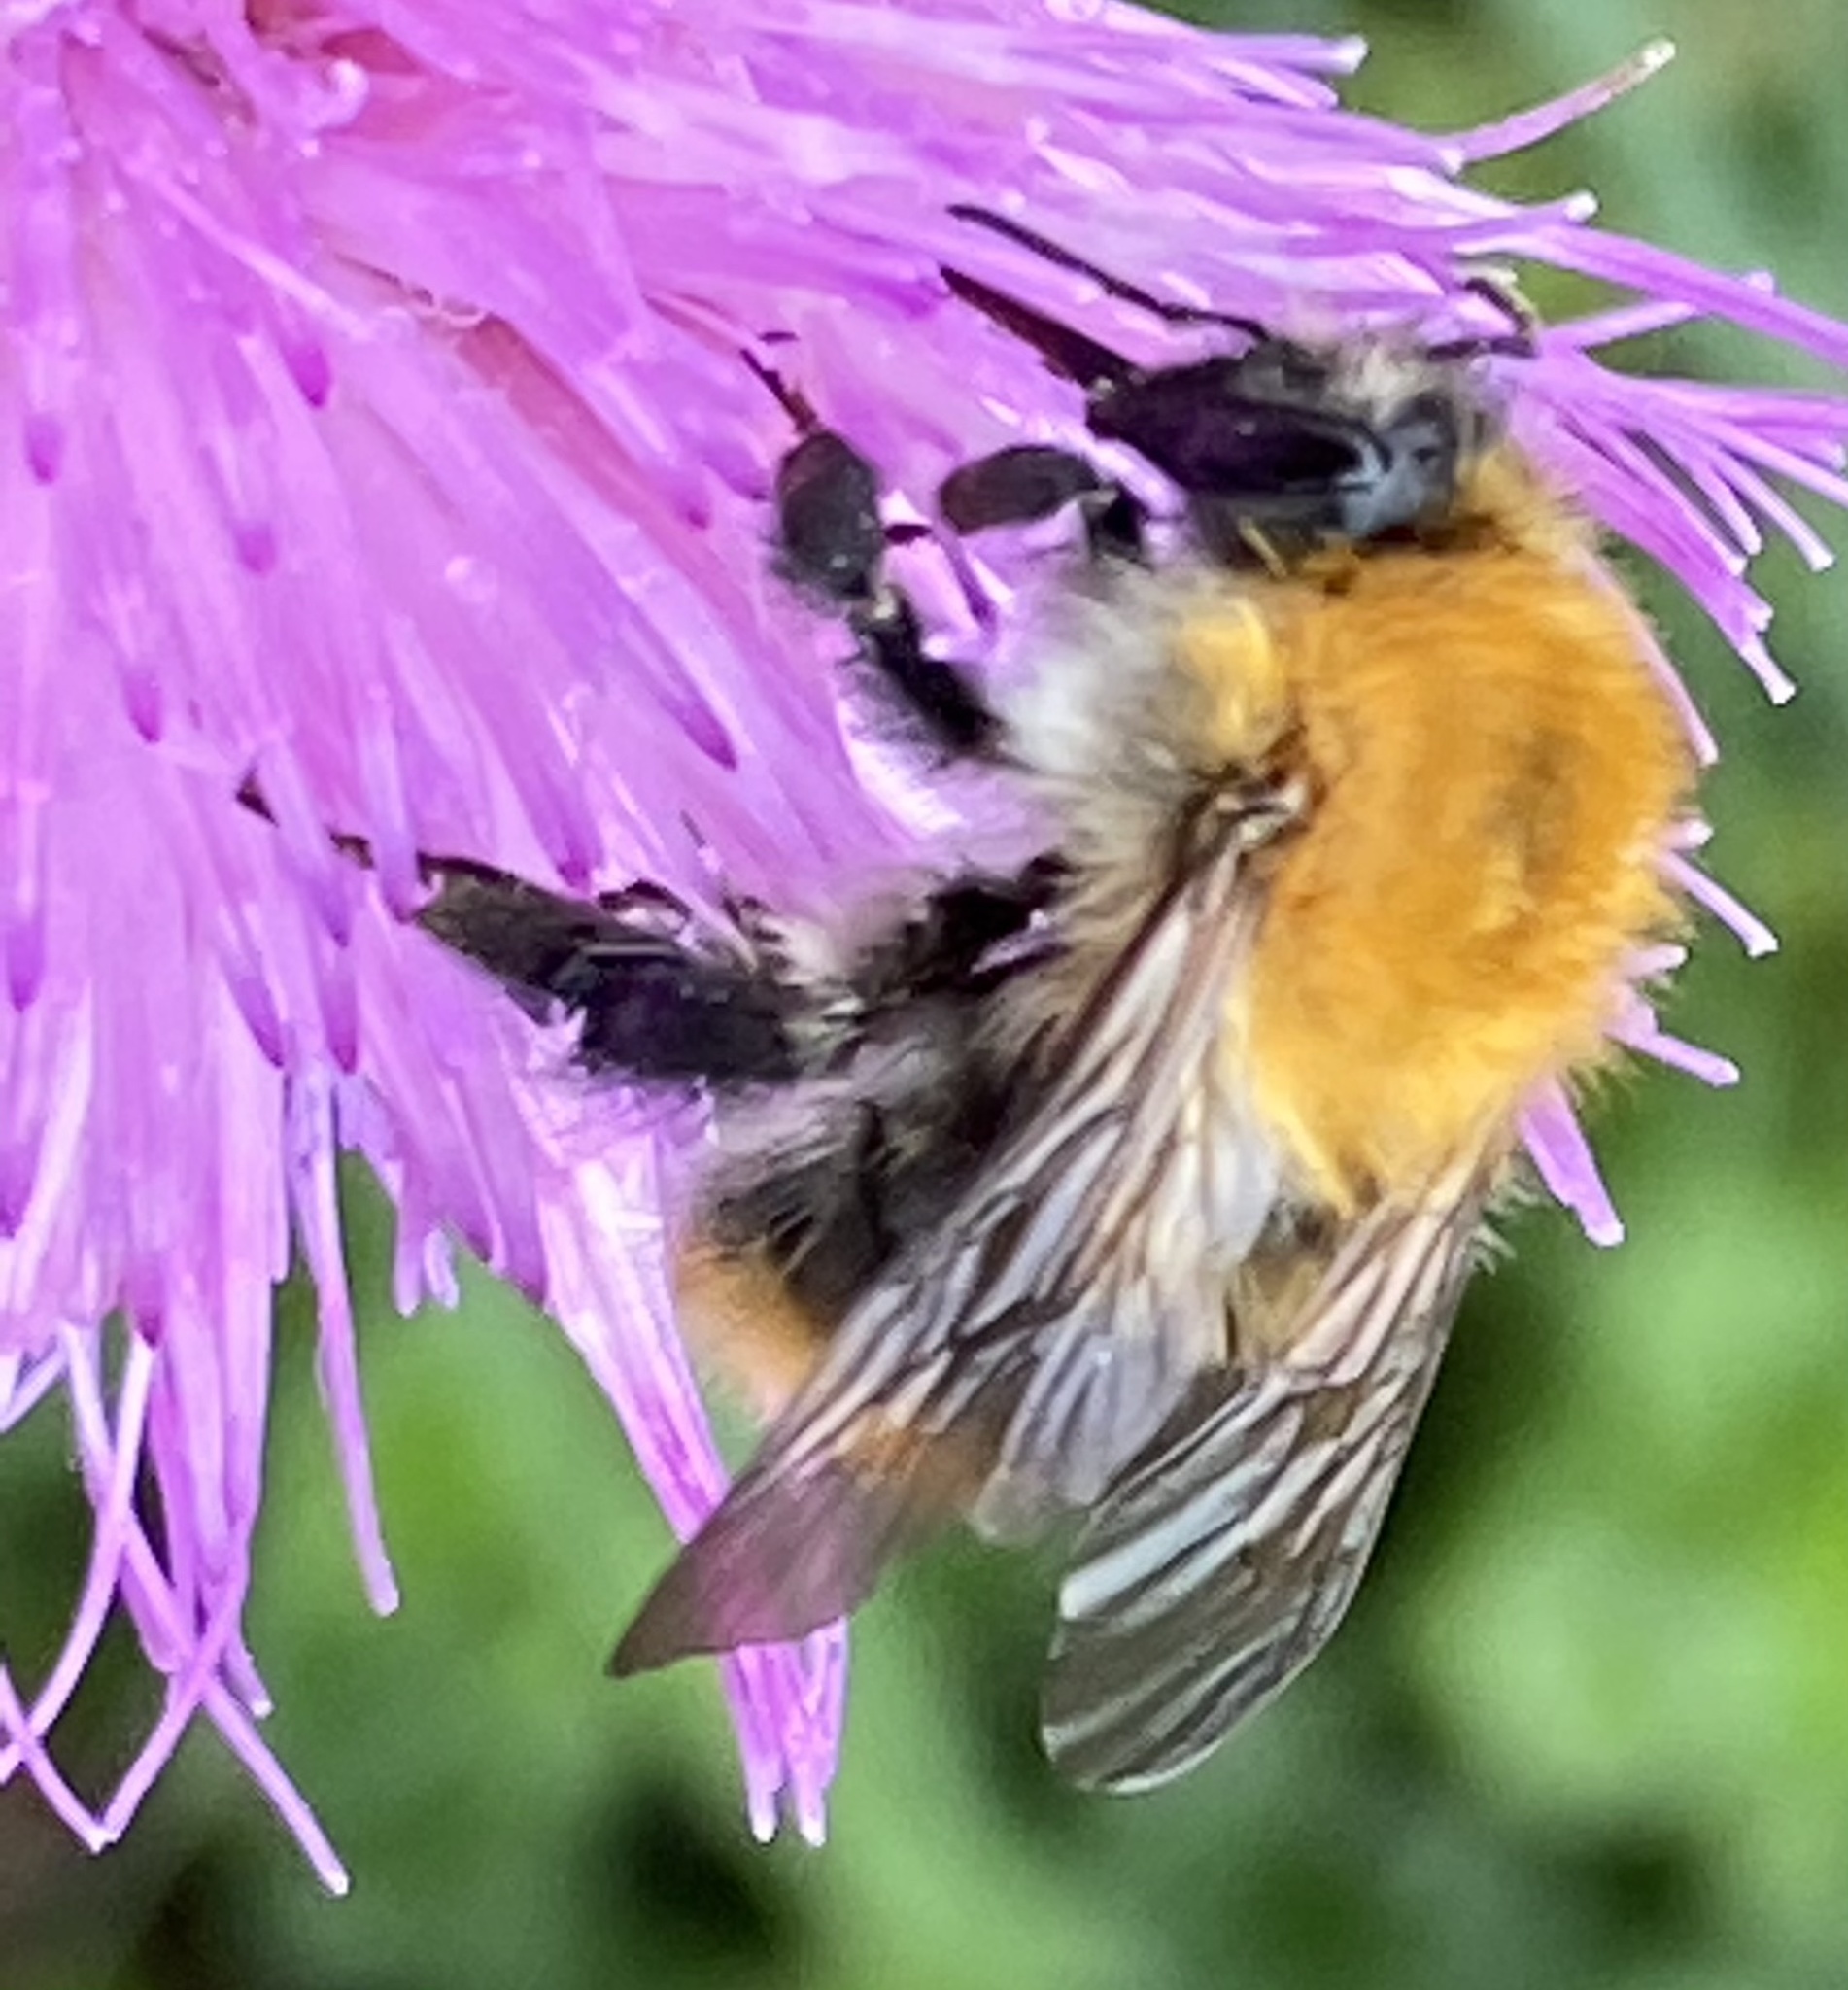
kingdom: Animalia
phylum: Arthropoda
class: Insecta
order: Hymenoptera
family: Apidae
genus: Bombus
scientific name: Bombus pascuorum
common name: Common carder bee
